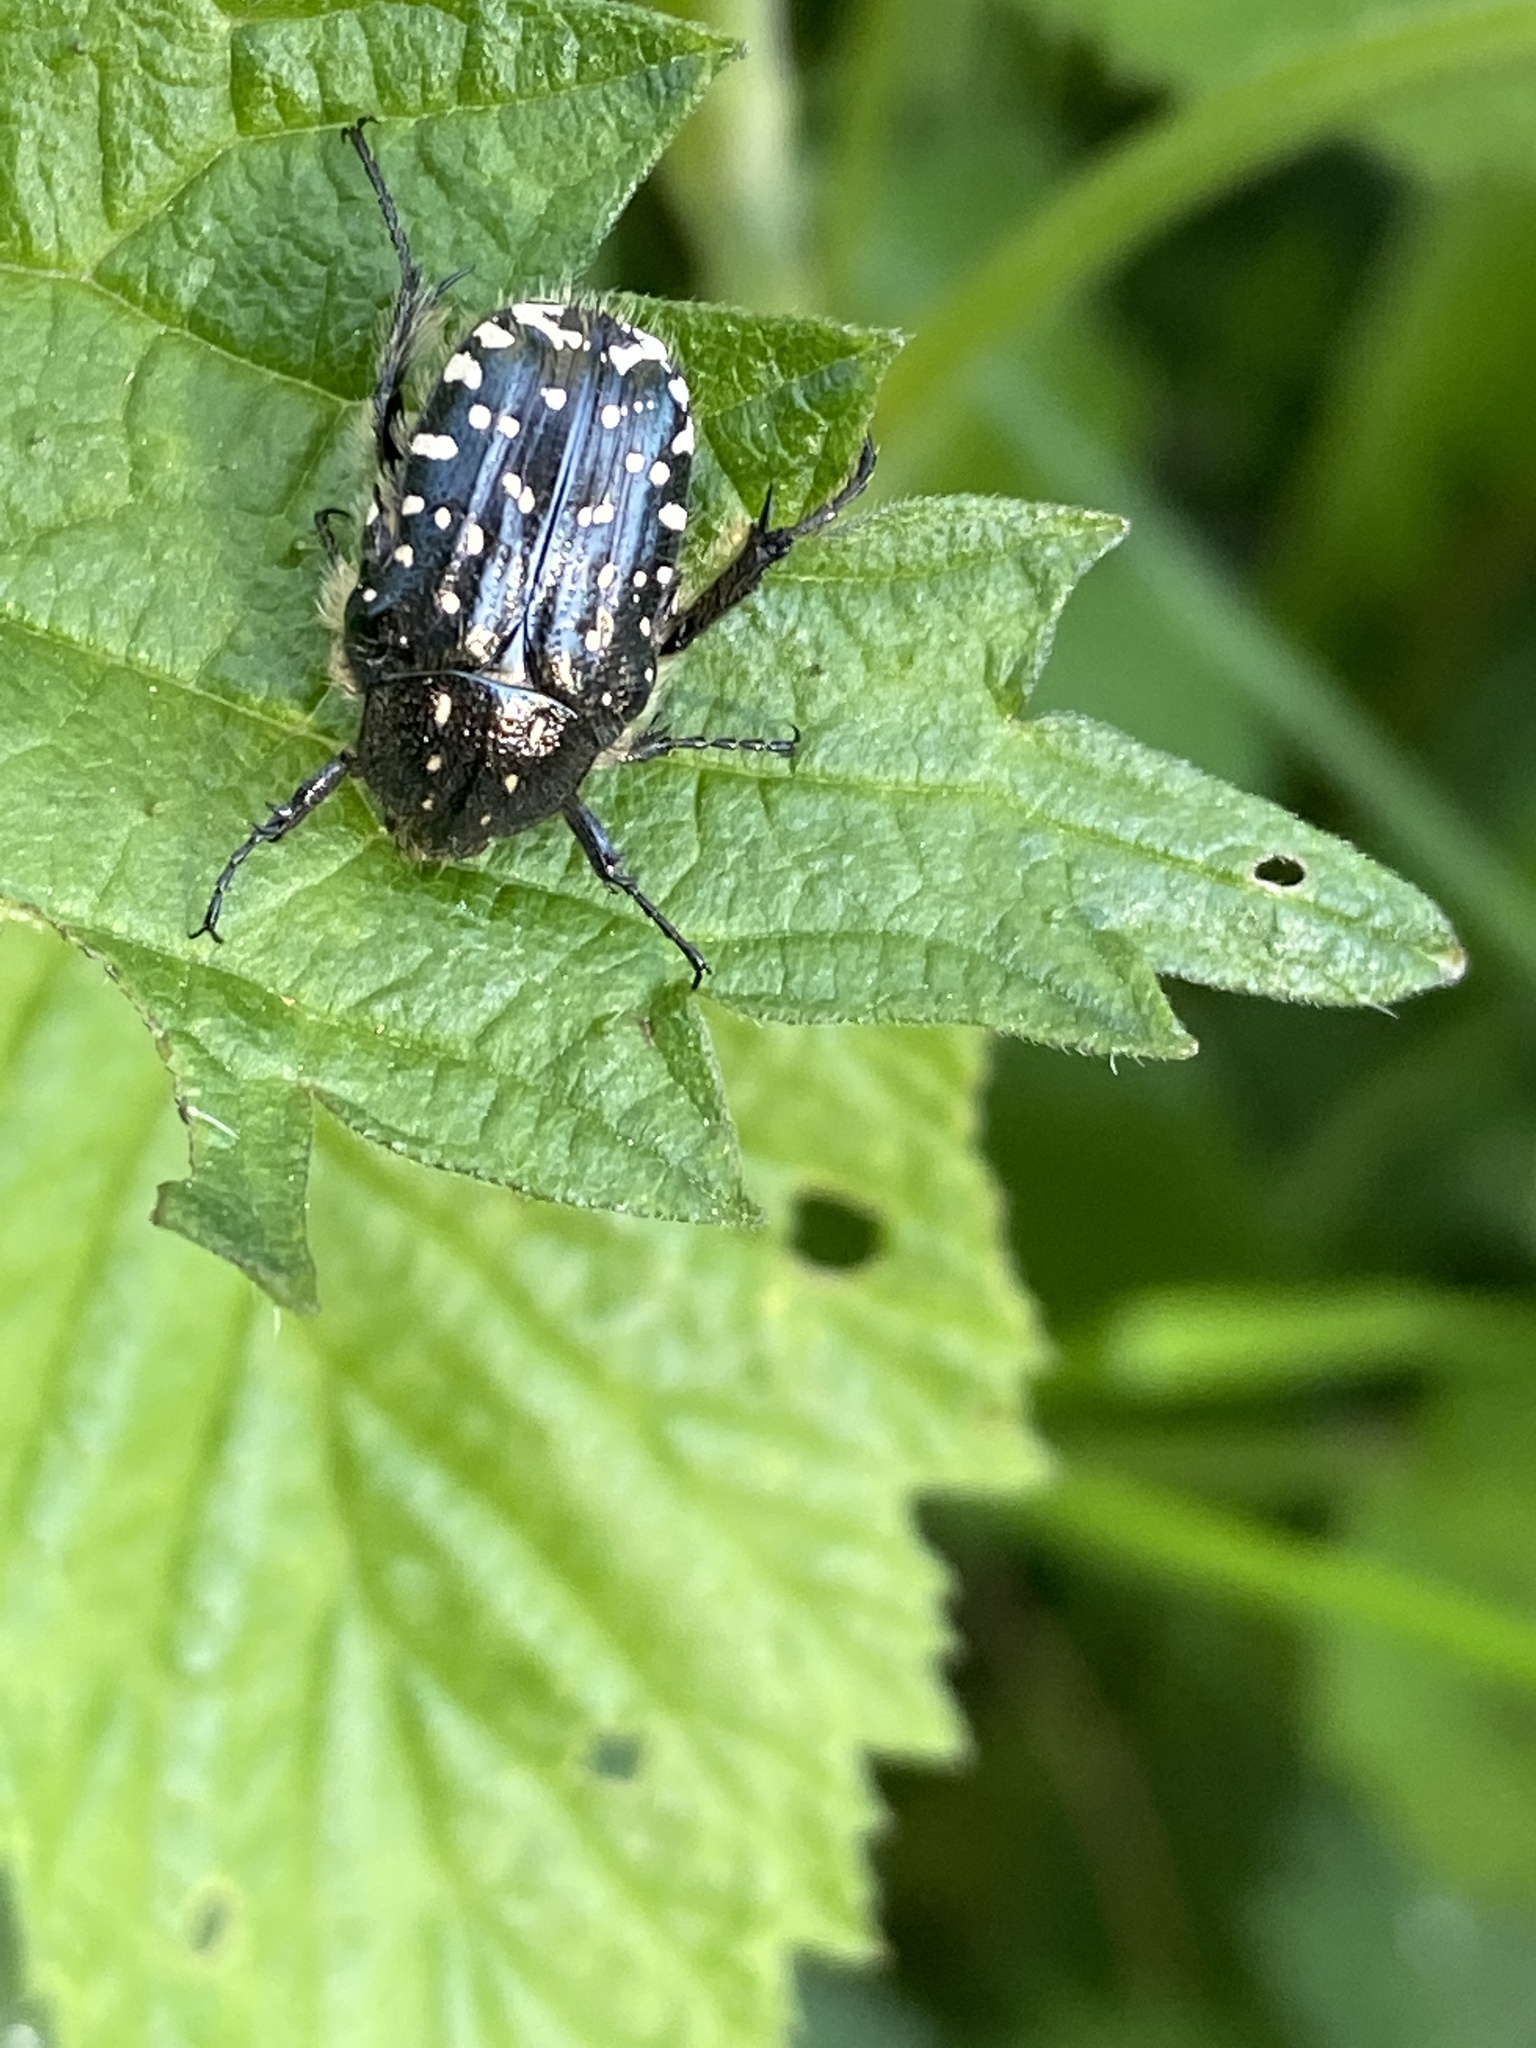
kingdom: Animalia
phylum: Arthropoda
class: Insecta
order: Coleoptera
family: Scarabaeidae
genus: Oxythyrea
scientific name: Oxythyrea funesta
